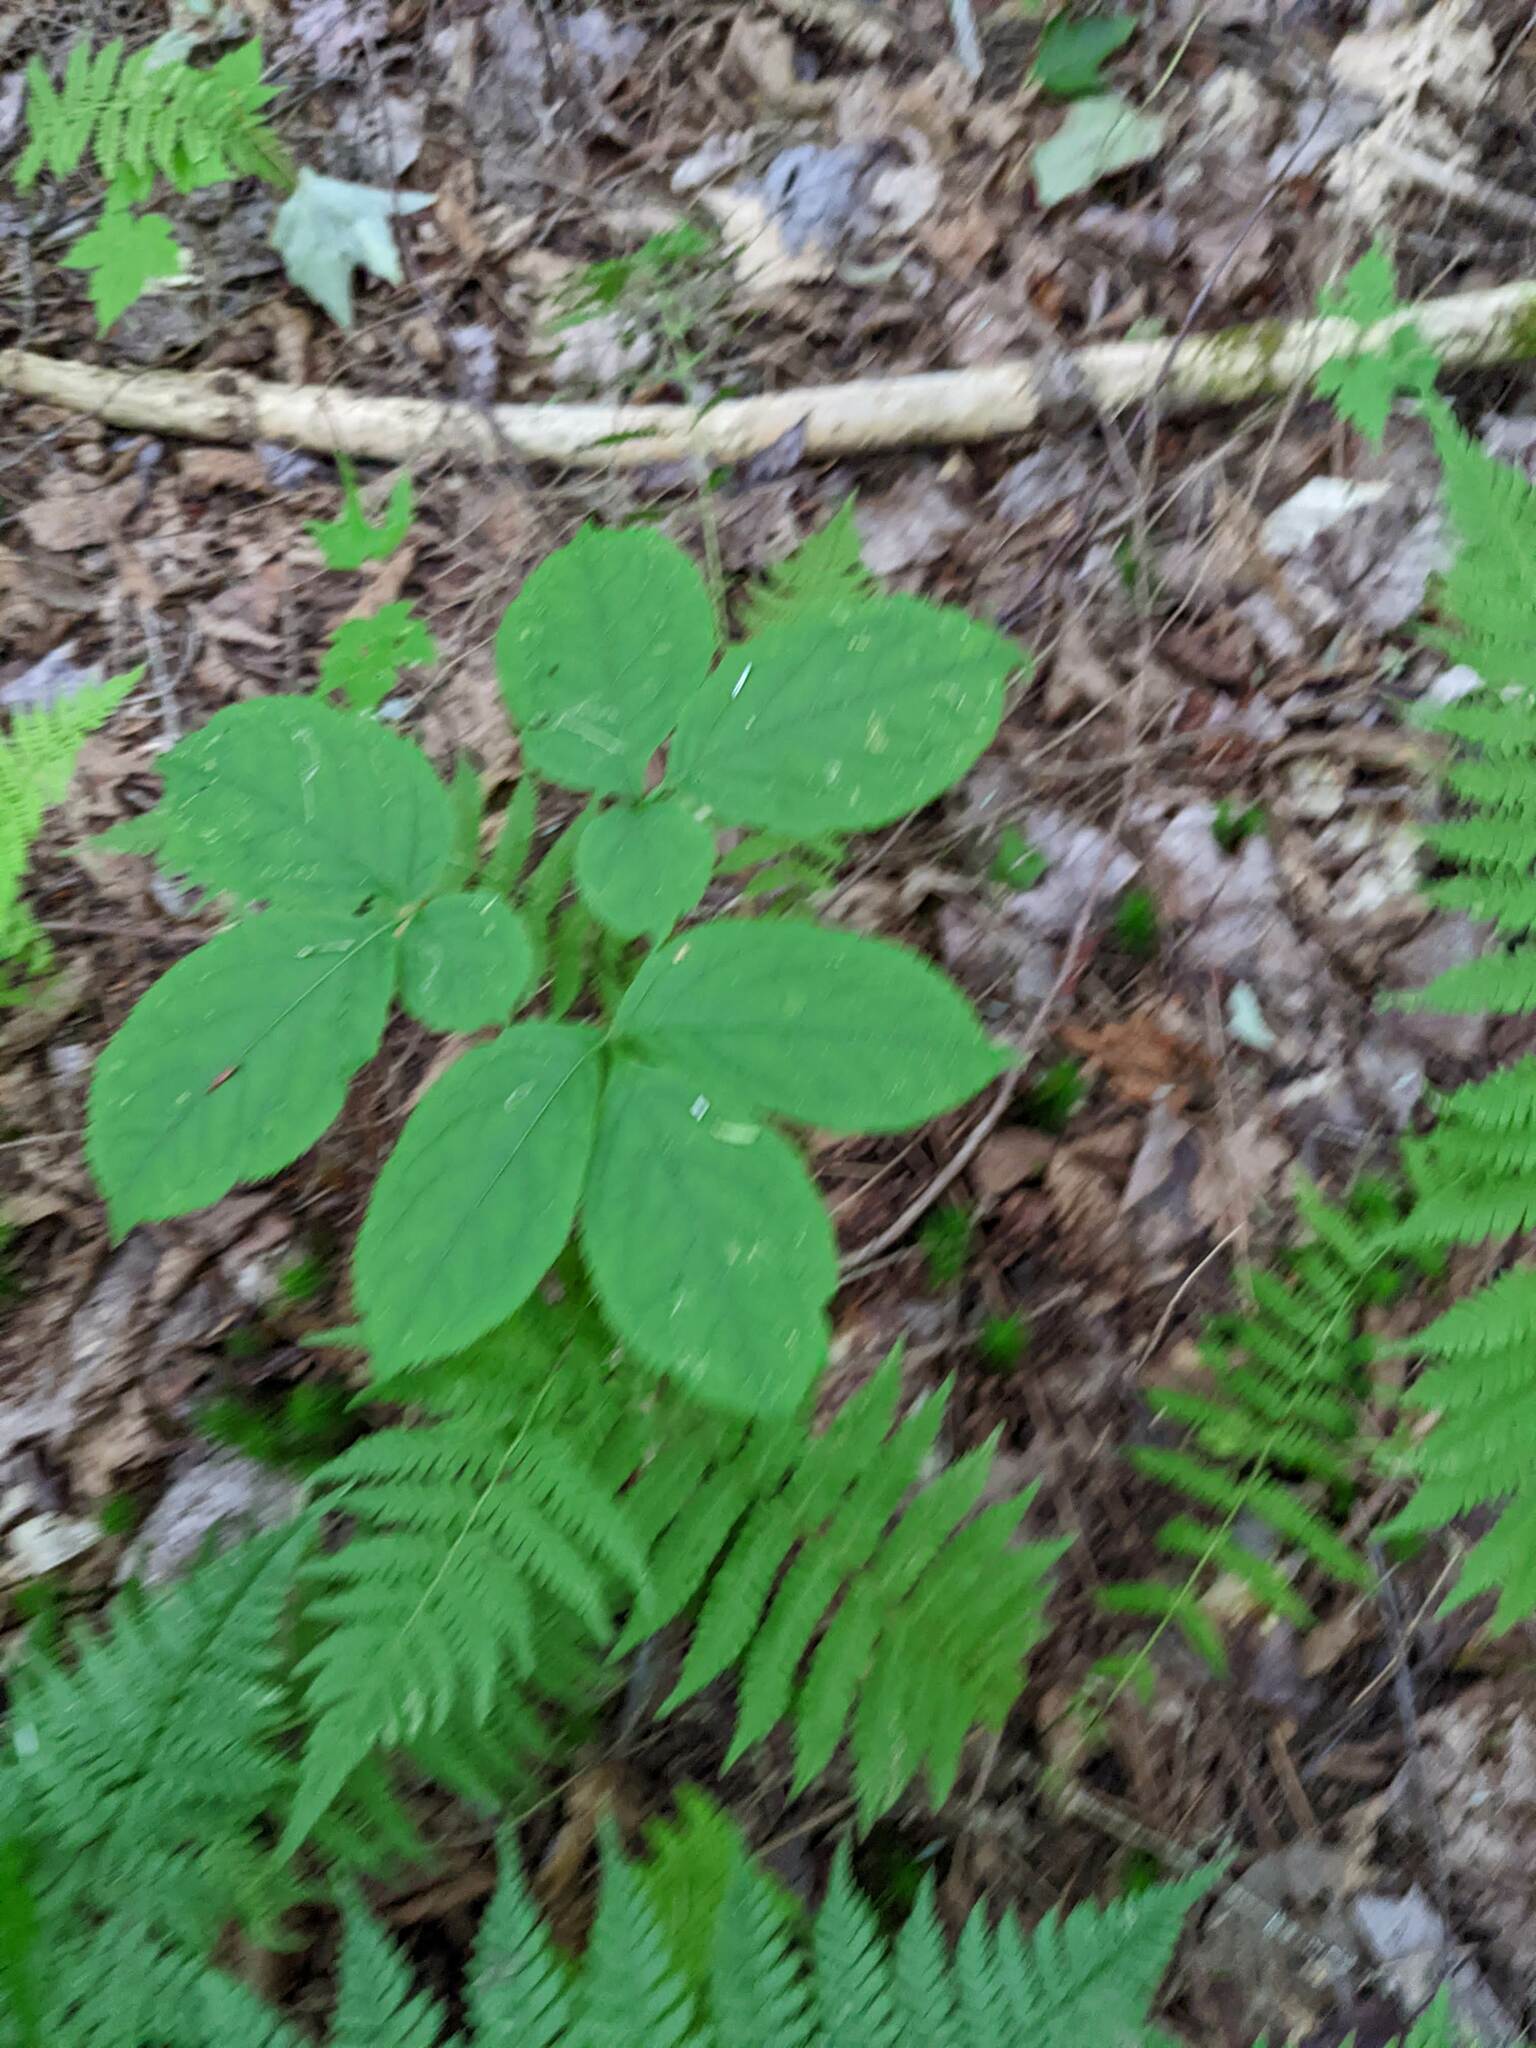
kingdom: Plantae
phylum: Tracheophyta
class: Magnoliopsida
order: Apiales
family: Araliaceae
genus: Aralia
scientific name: Aralia nudicaulis
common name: Wild sarsaparilla
